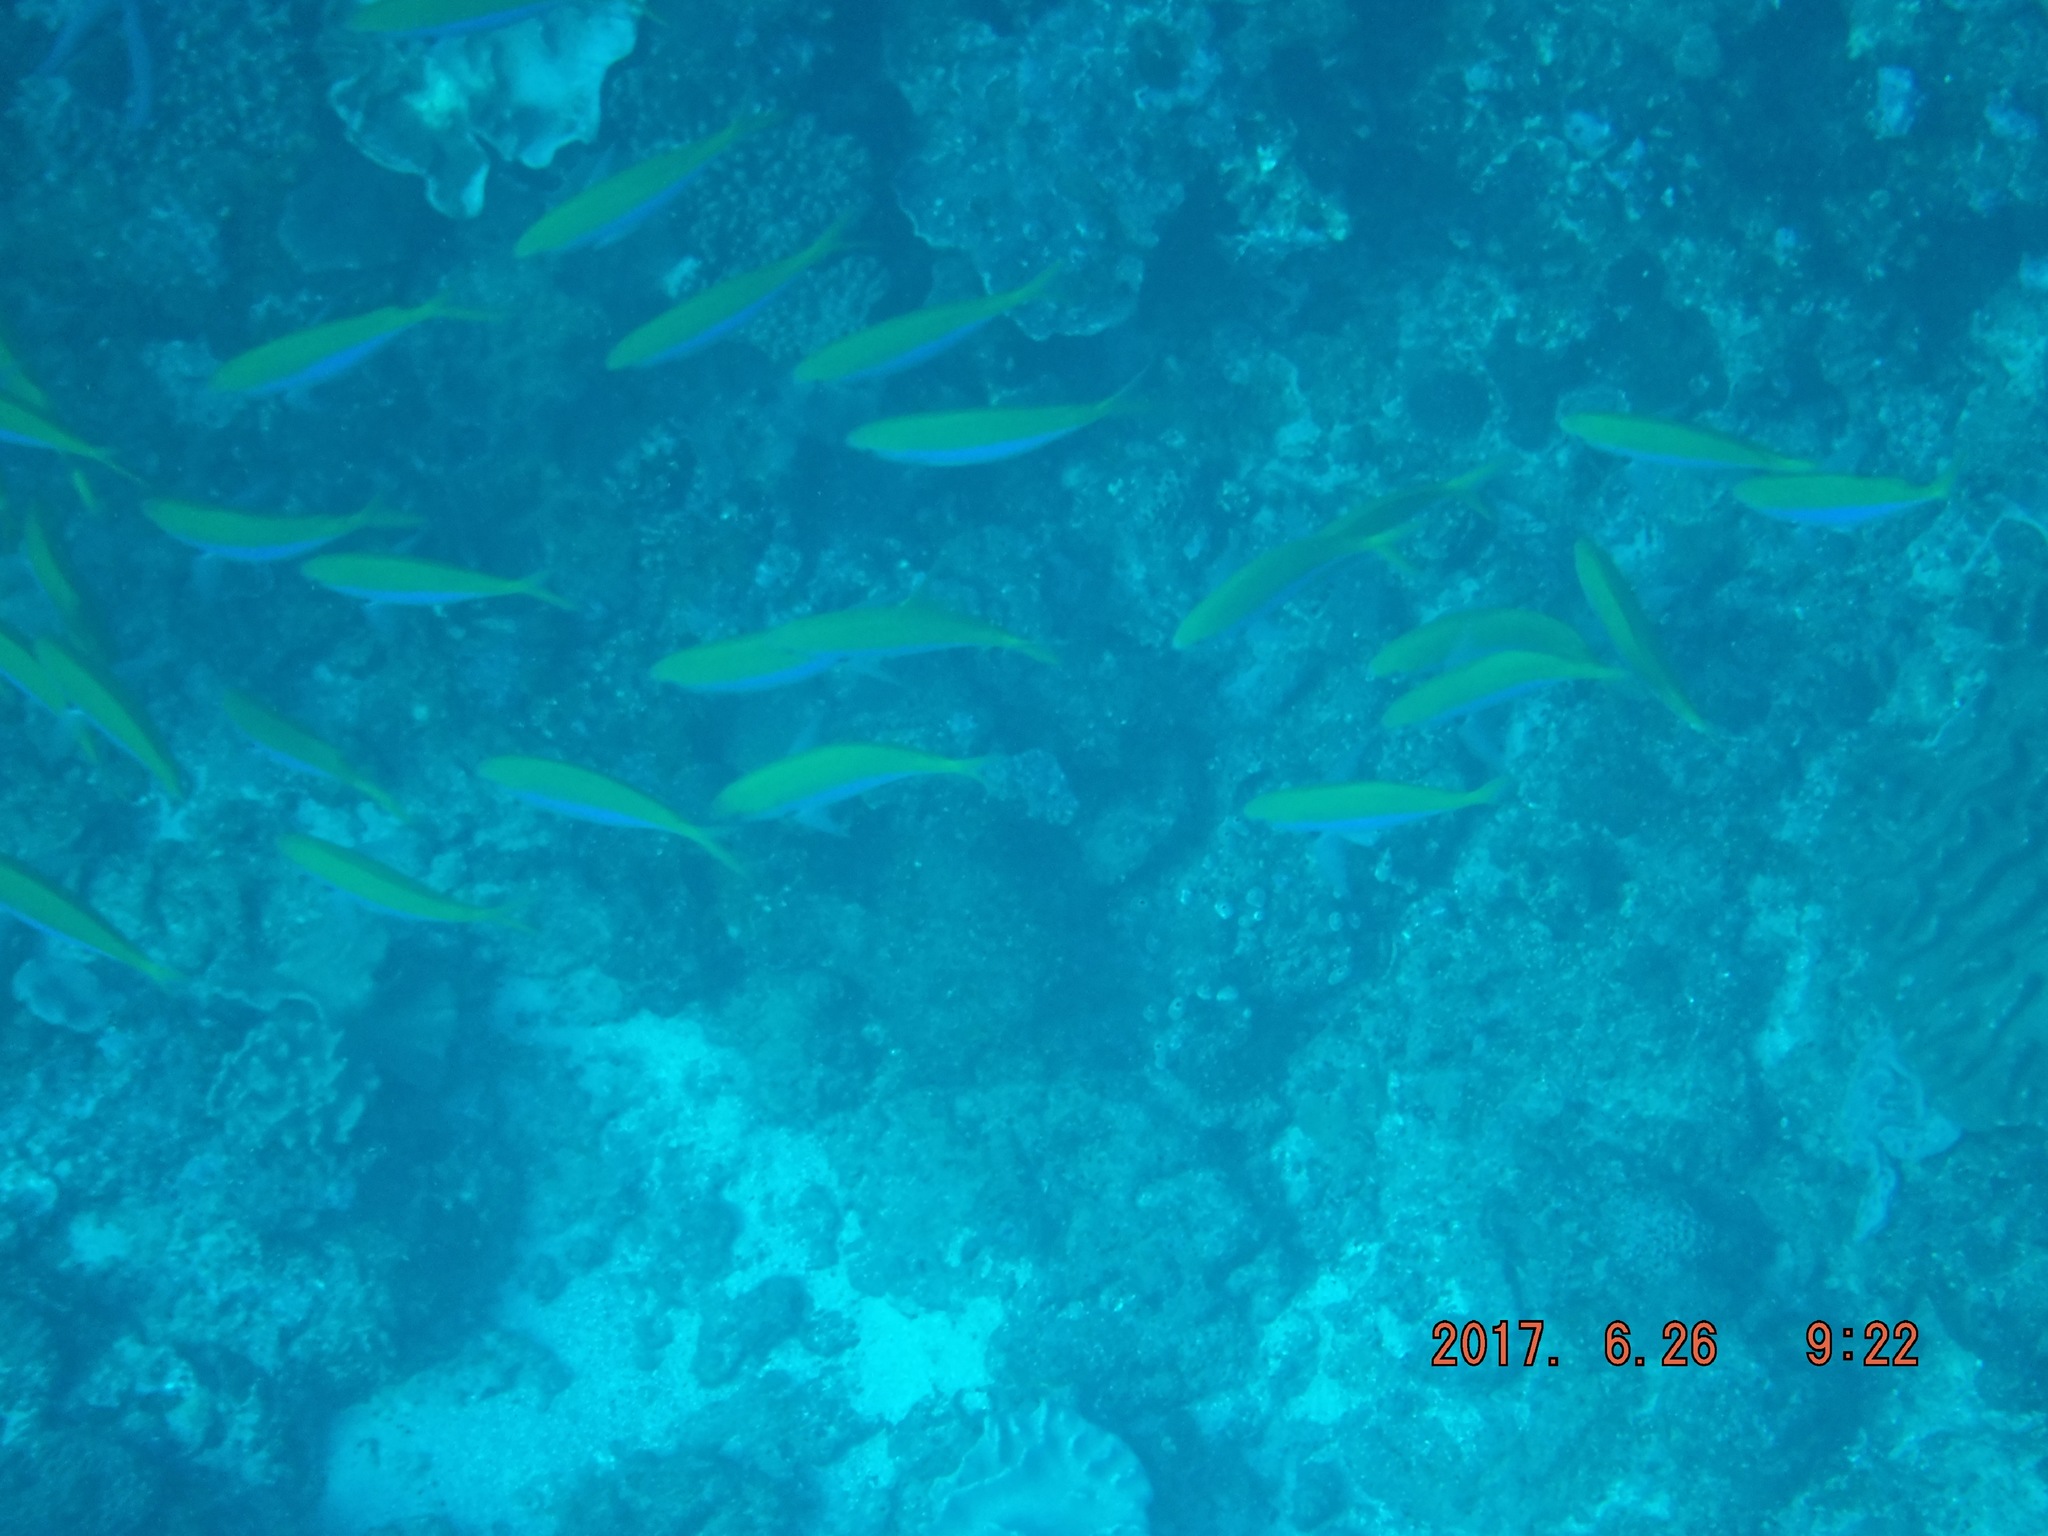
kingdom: Animalia
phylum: Chordata
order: Perciformes
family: Caesionidae
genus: Caesio
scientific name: Caesio xanthonota
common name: Yellowback fusilier
